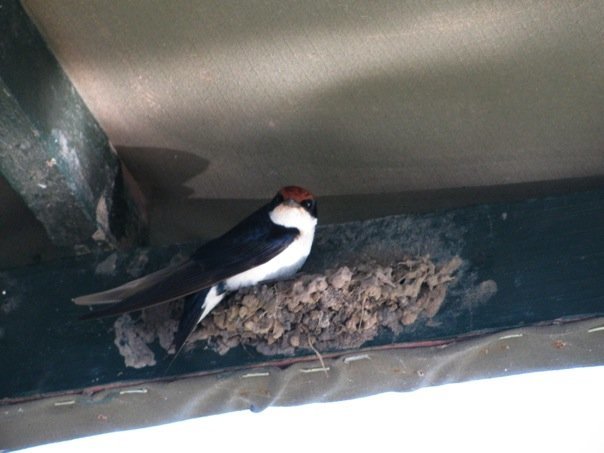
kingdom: Animalia
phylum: Chordata
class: Aves
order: Passeriformes
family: Hirundinidae
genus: Hirundo
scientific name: Hirundo smithii
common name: Wire-tailed swallow
